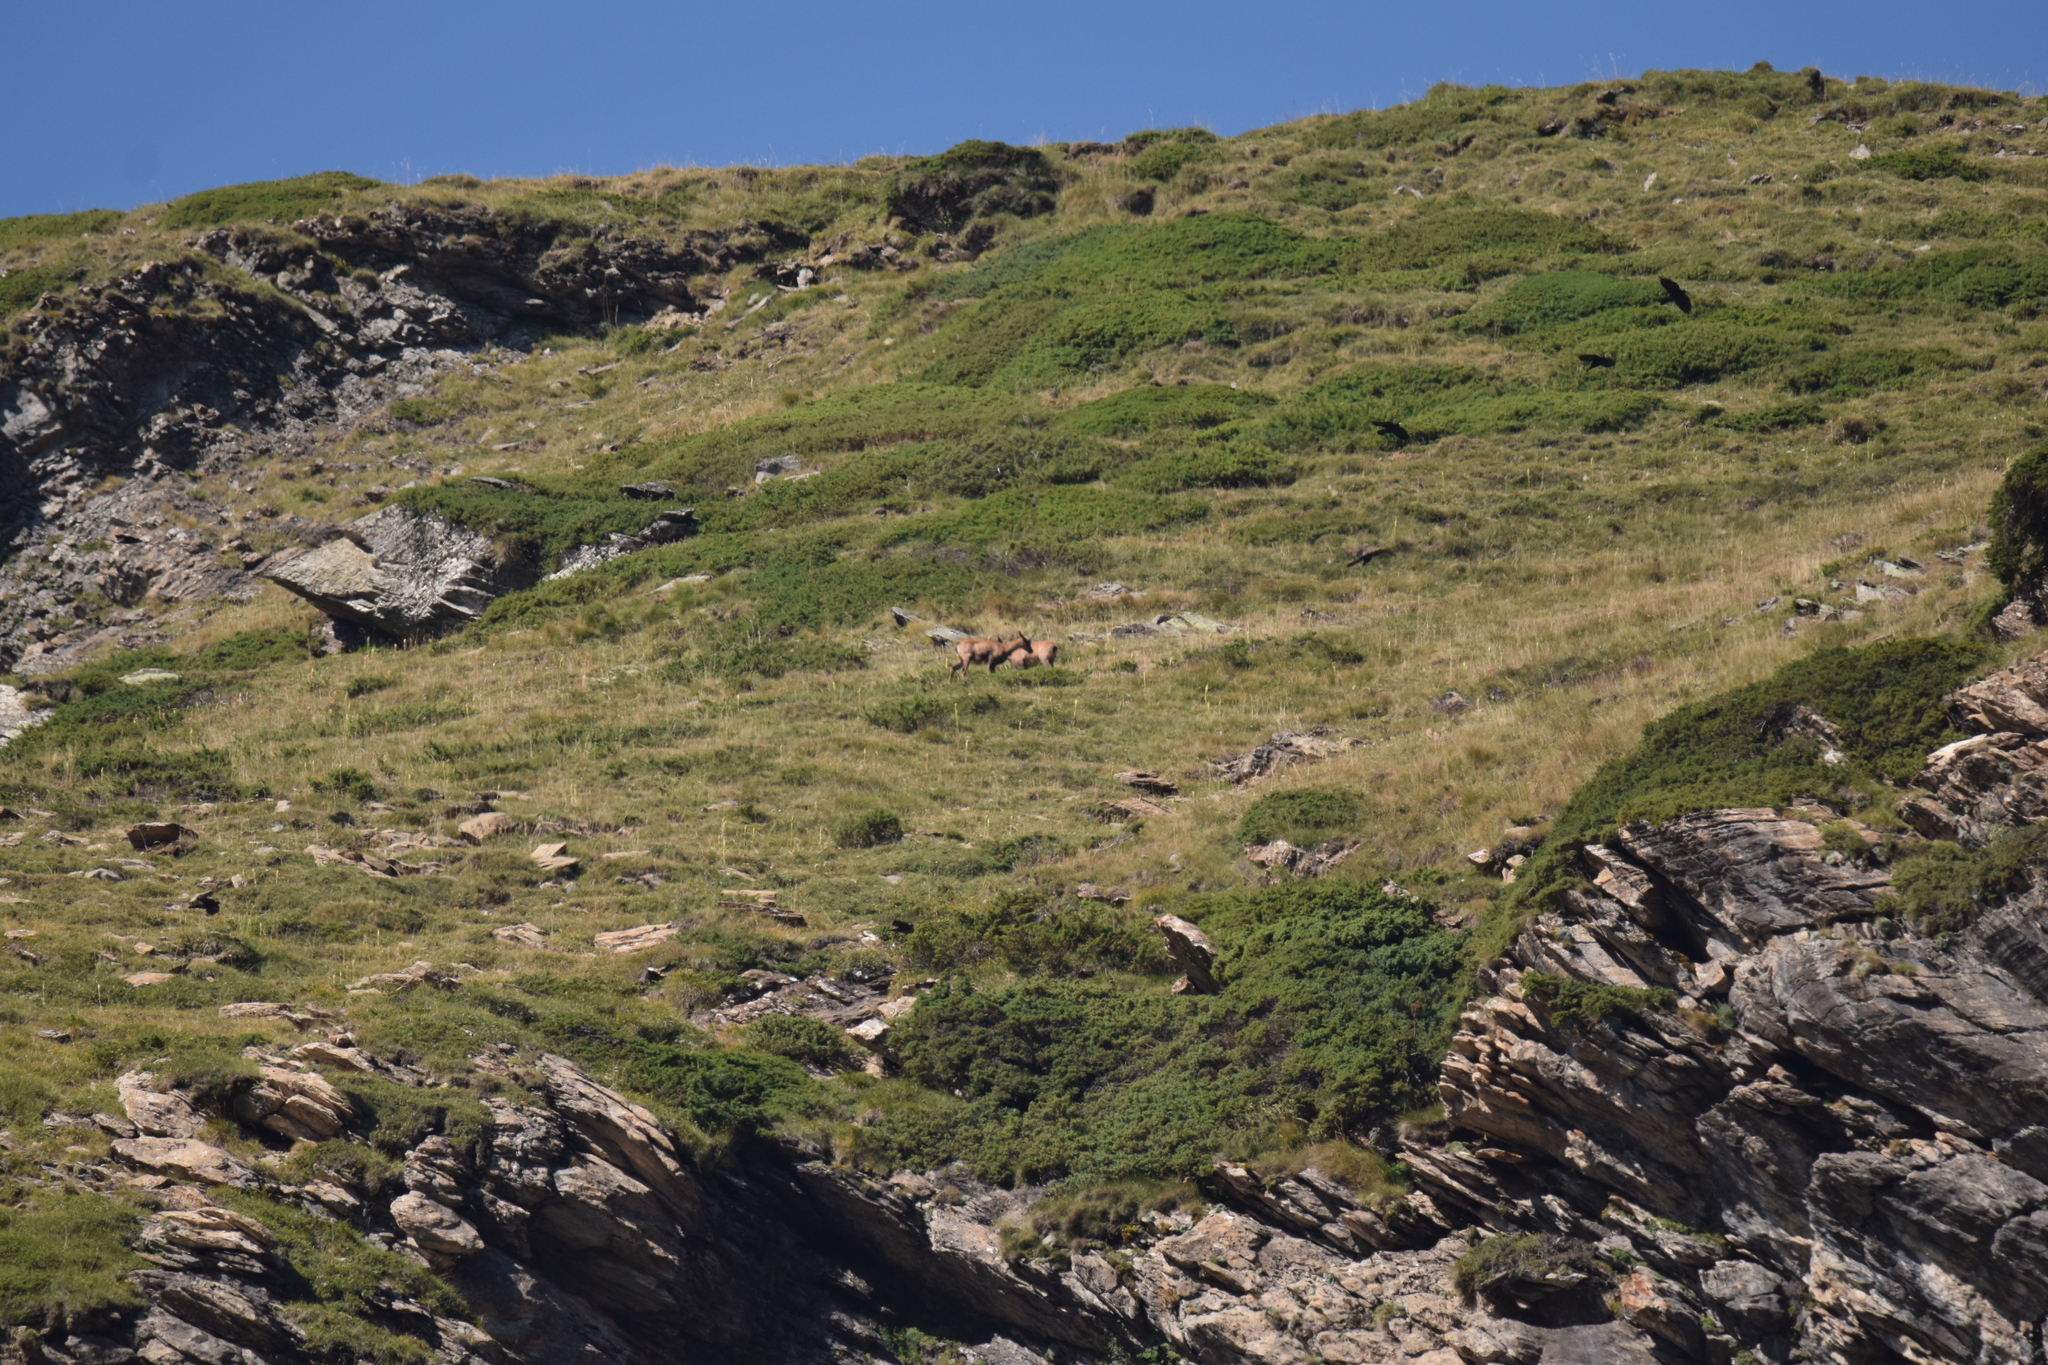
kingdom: Animalia
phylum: Chordata
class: Mammalia
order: Artiodactyla
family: Bovidae
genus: Rupicapra
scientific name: Rupicapra pyrenaica
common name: Pyrenean chamois
